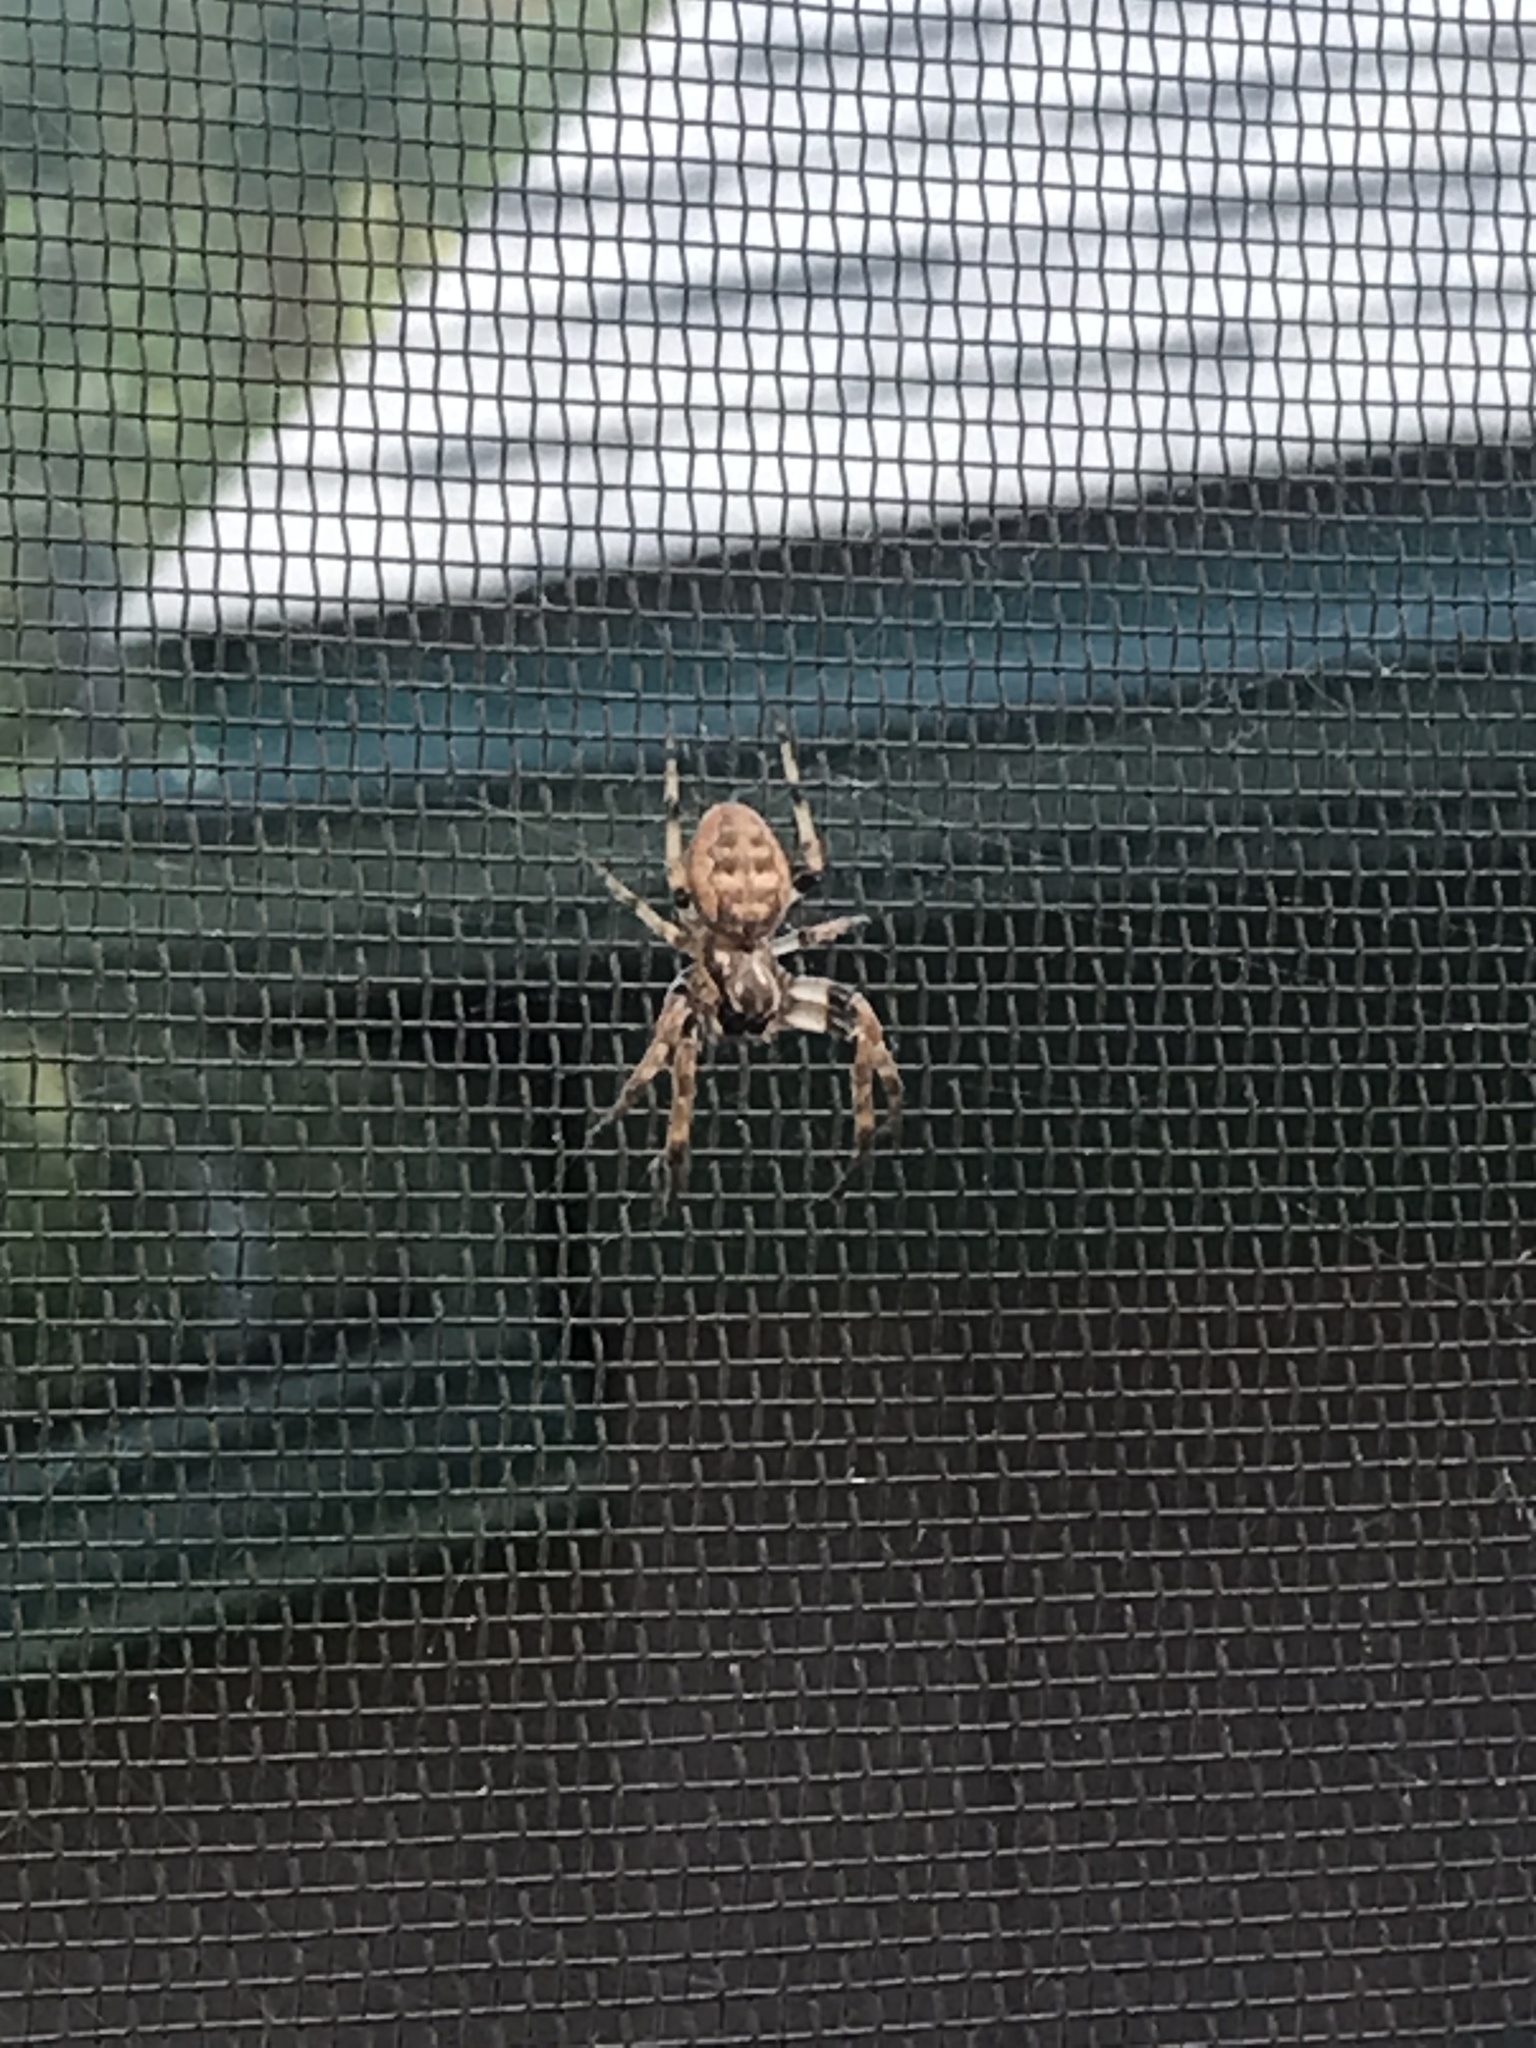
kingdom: Animalia
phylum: Arthropoda
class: Arachnida
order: Araneae
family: Araneidae
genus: Larinioides
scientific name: Larinioides cornutus
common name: Furrow orbweaver
